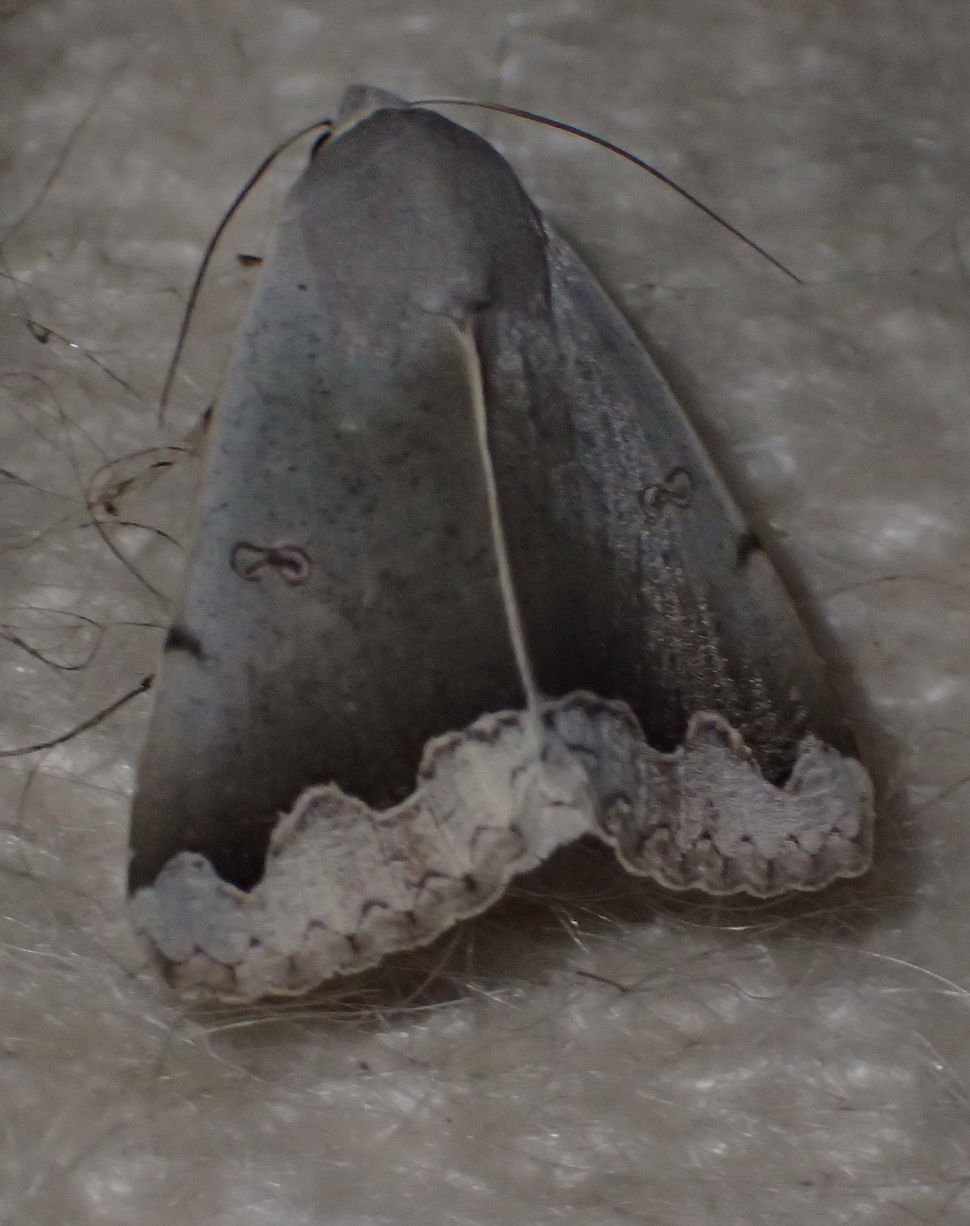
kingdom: Animalia
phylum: Arthropoda
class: Insecta
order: Lepidoptera
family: Erebidae
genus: Ophiusa
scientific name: Ophiusa dianaris
